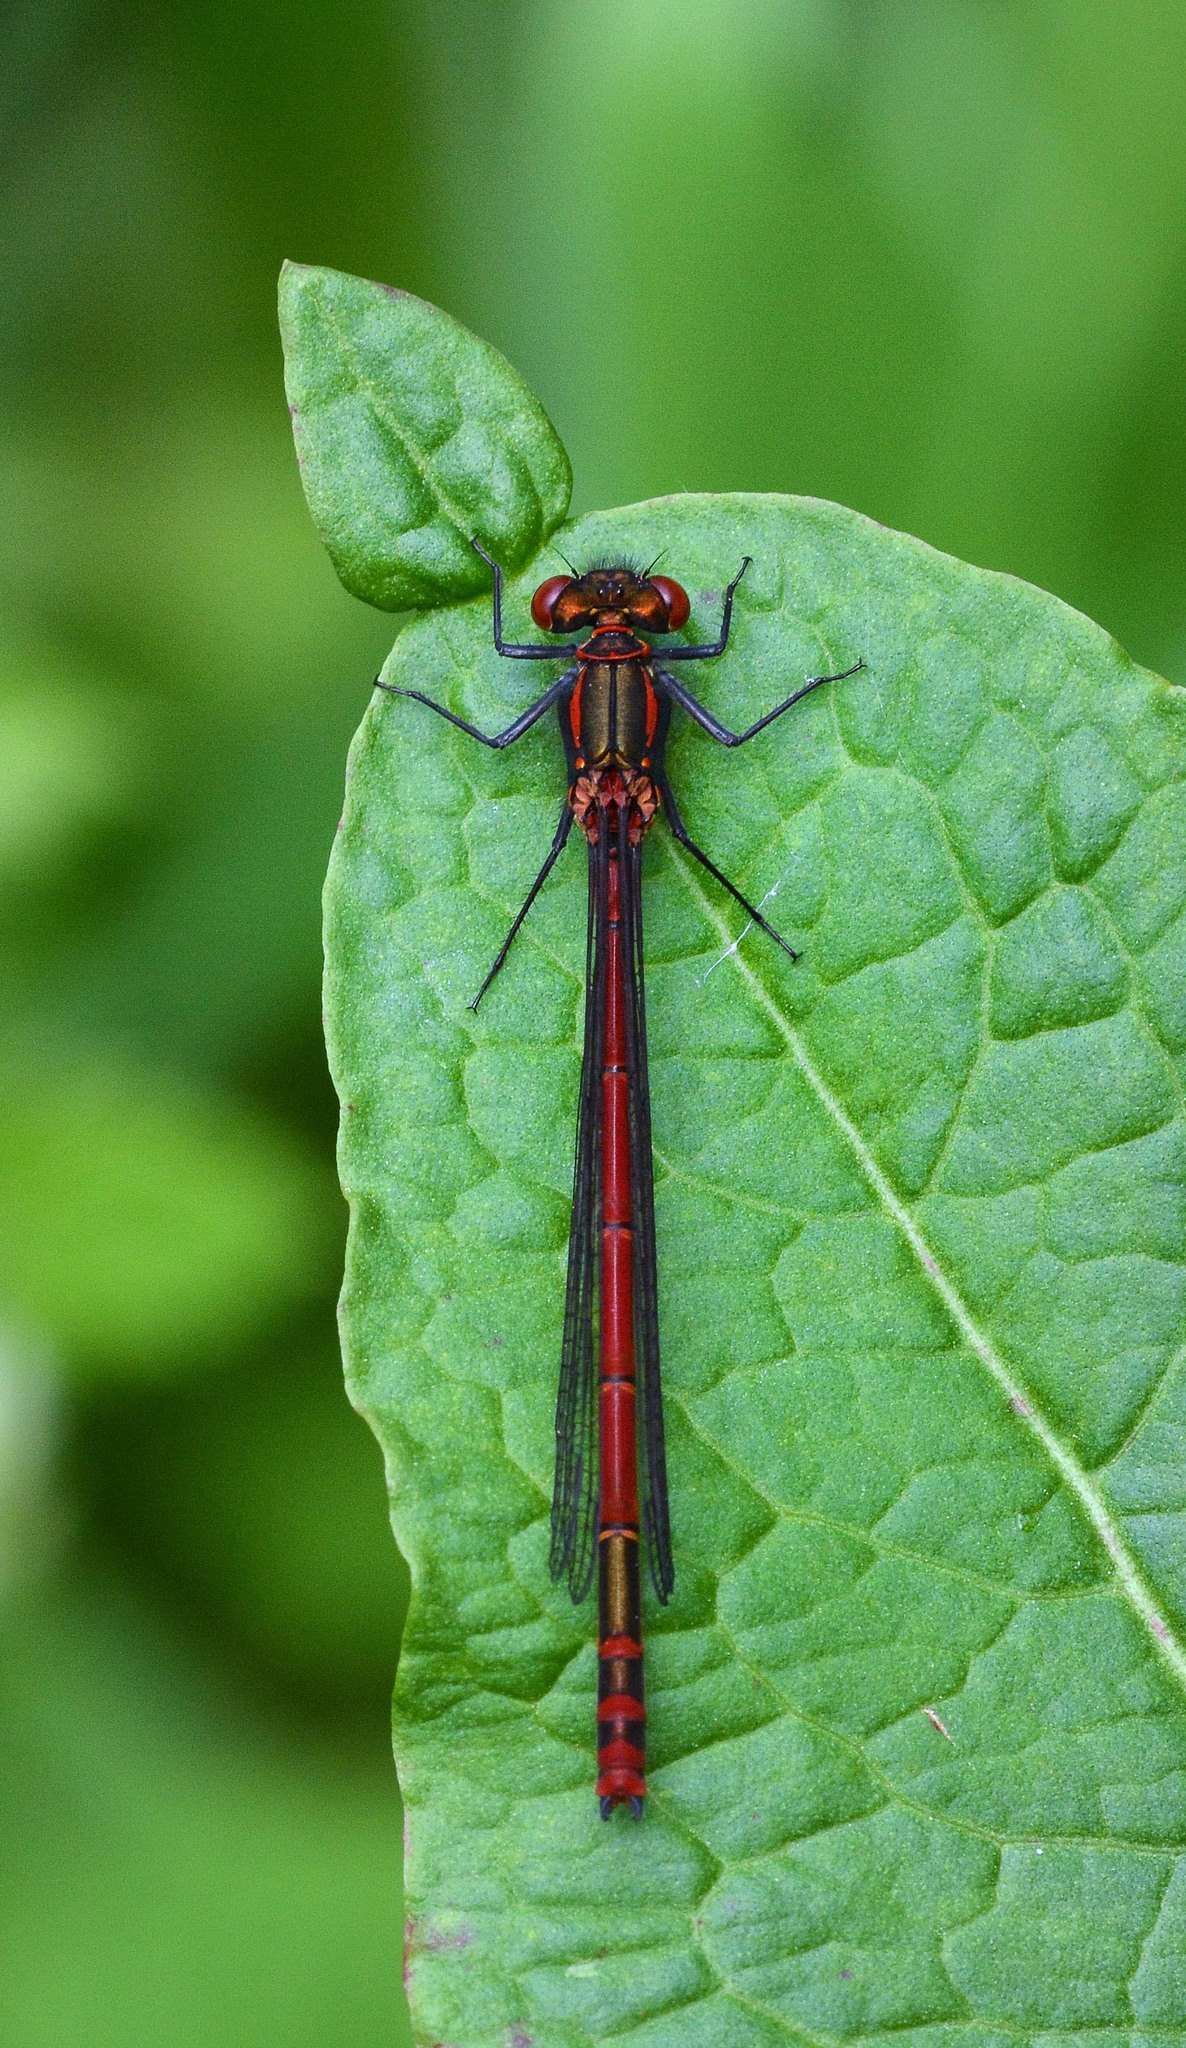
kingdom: Animalia
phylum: Arthropoda
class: Insecta
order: Odonata
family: Coenagrionidae
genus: Pyrrhosoma
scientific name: Pyrrhosoma nymphula
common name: Large red damsel
